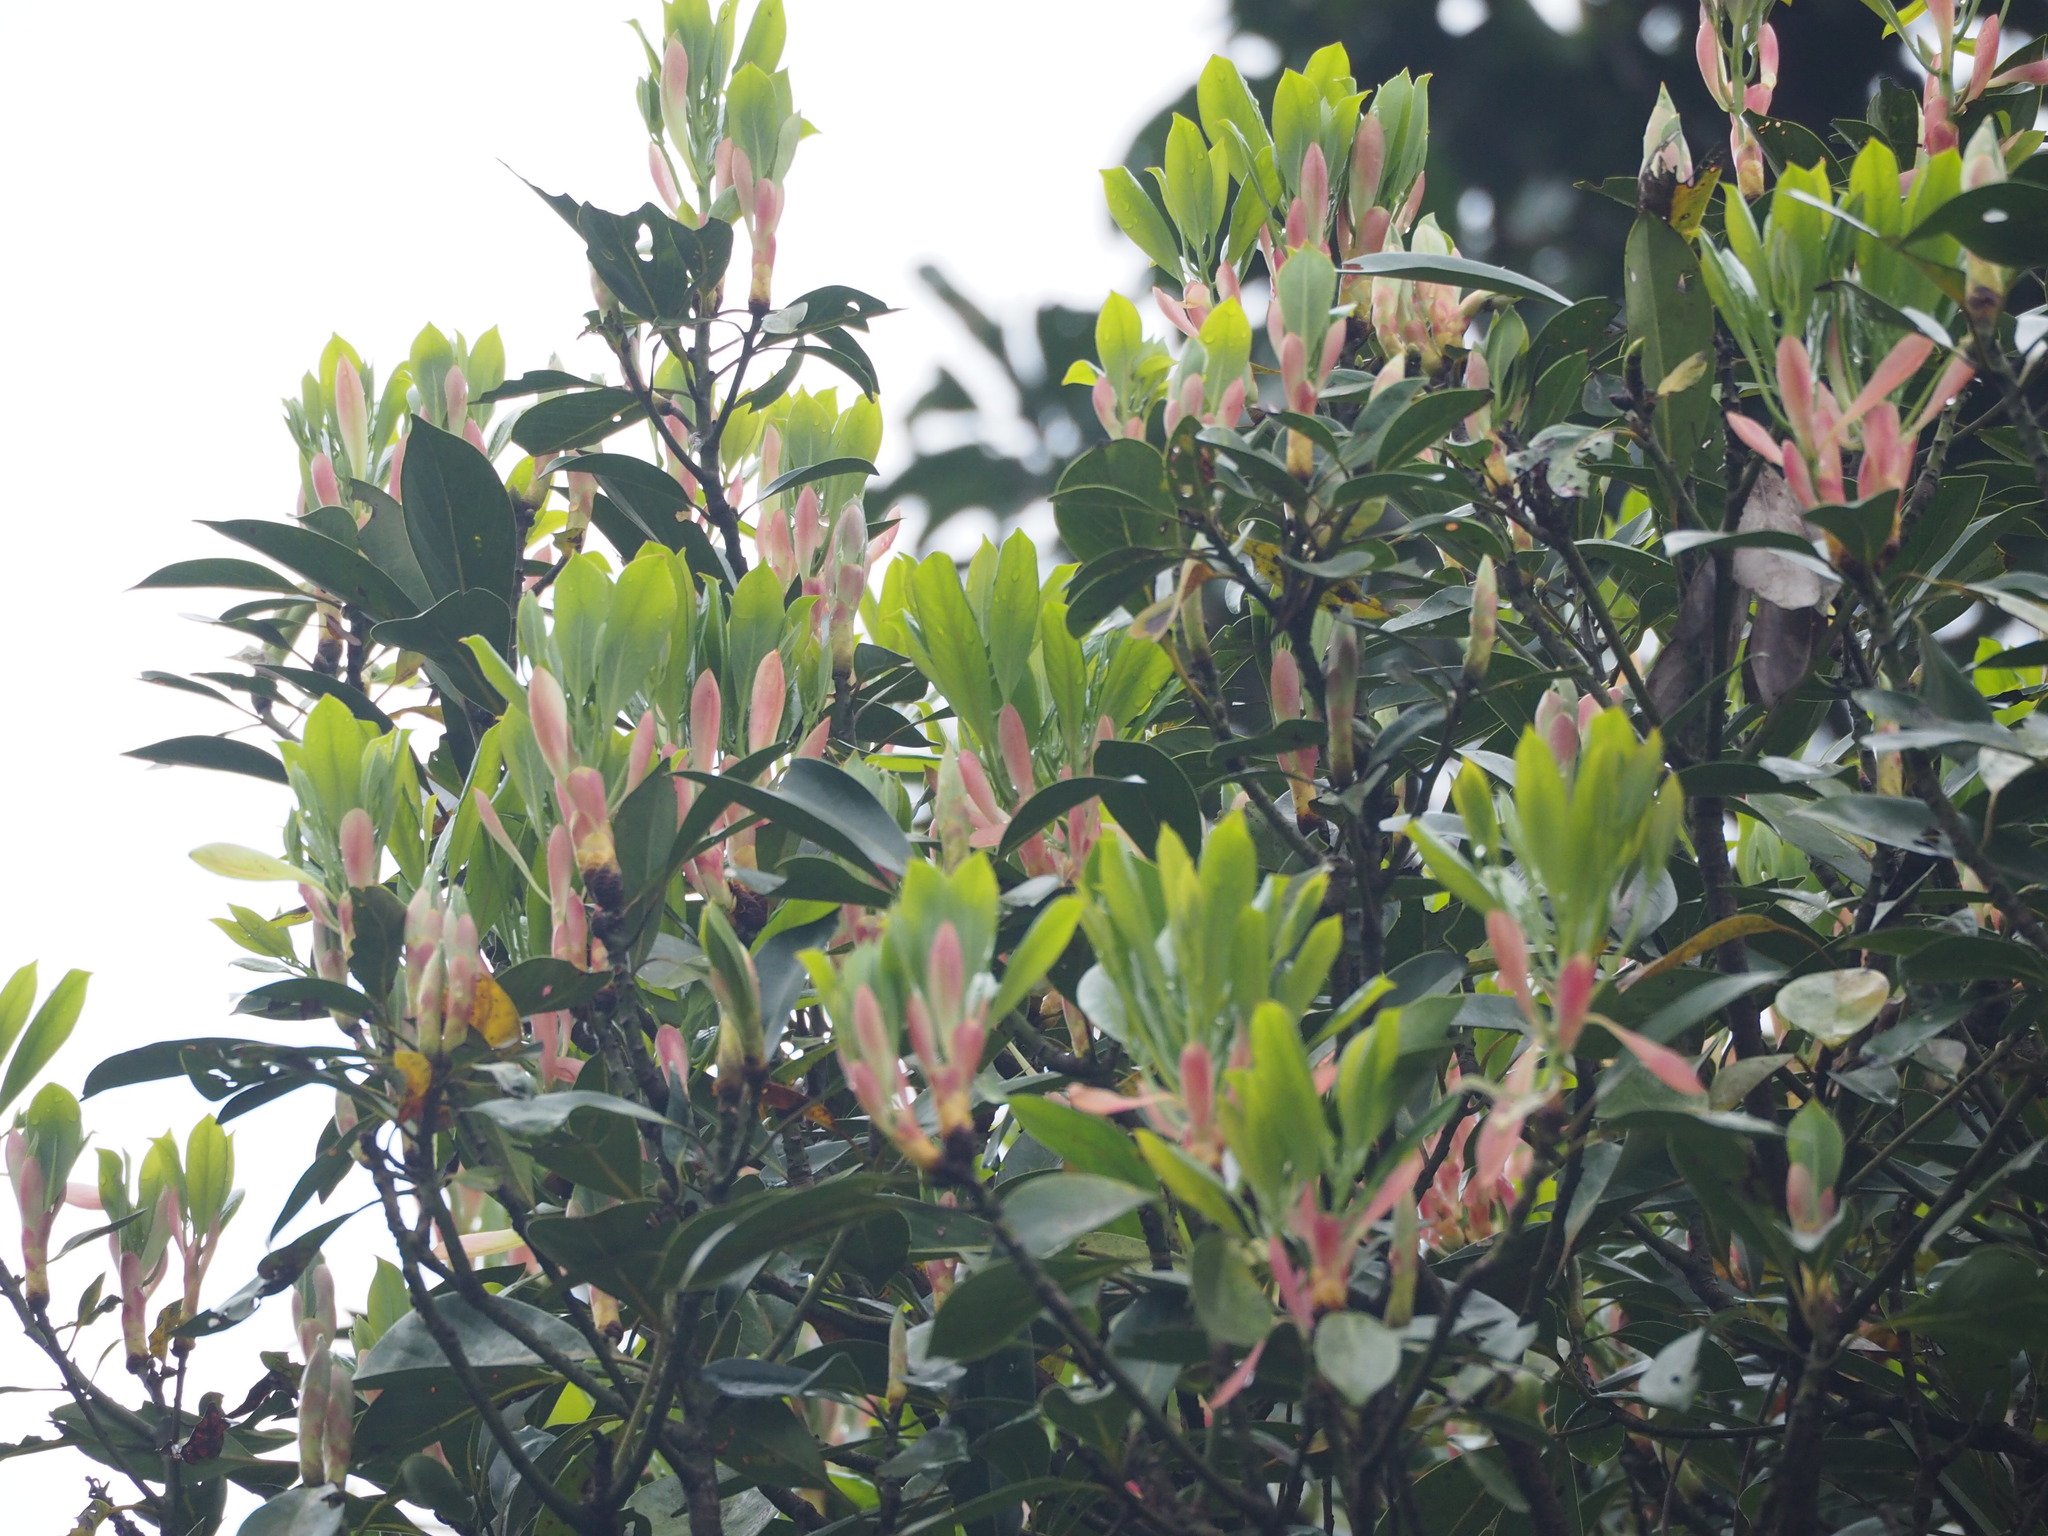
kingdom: Plantae
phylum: Tracheophyta
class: Magnoliopsida
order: Laurales
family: Lauraceae
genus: Machilus
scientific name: Machilus thunbergii
